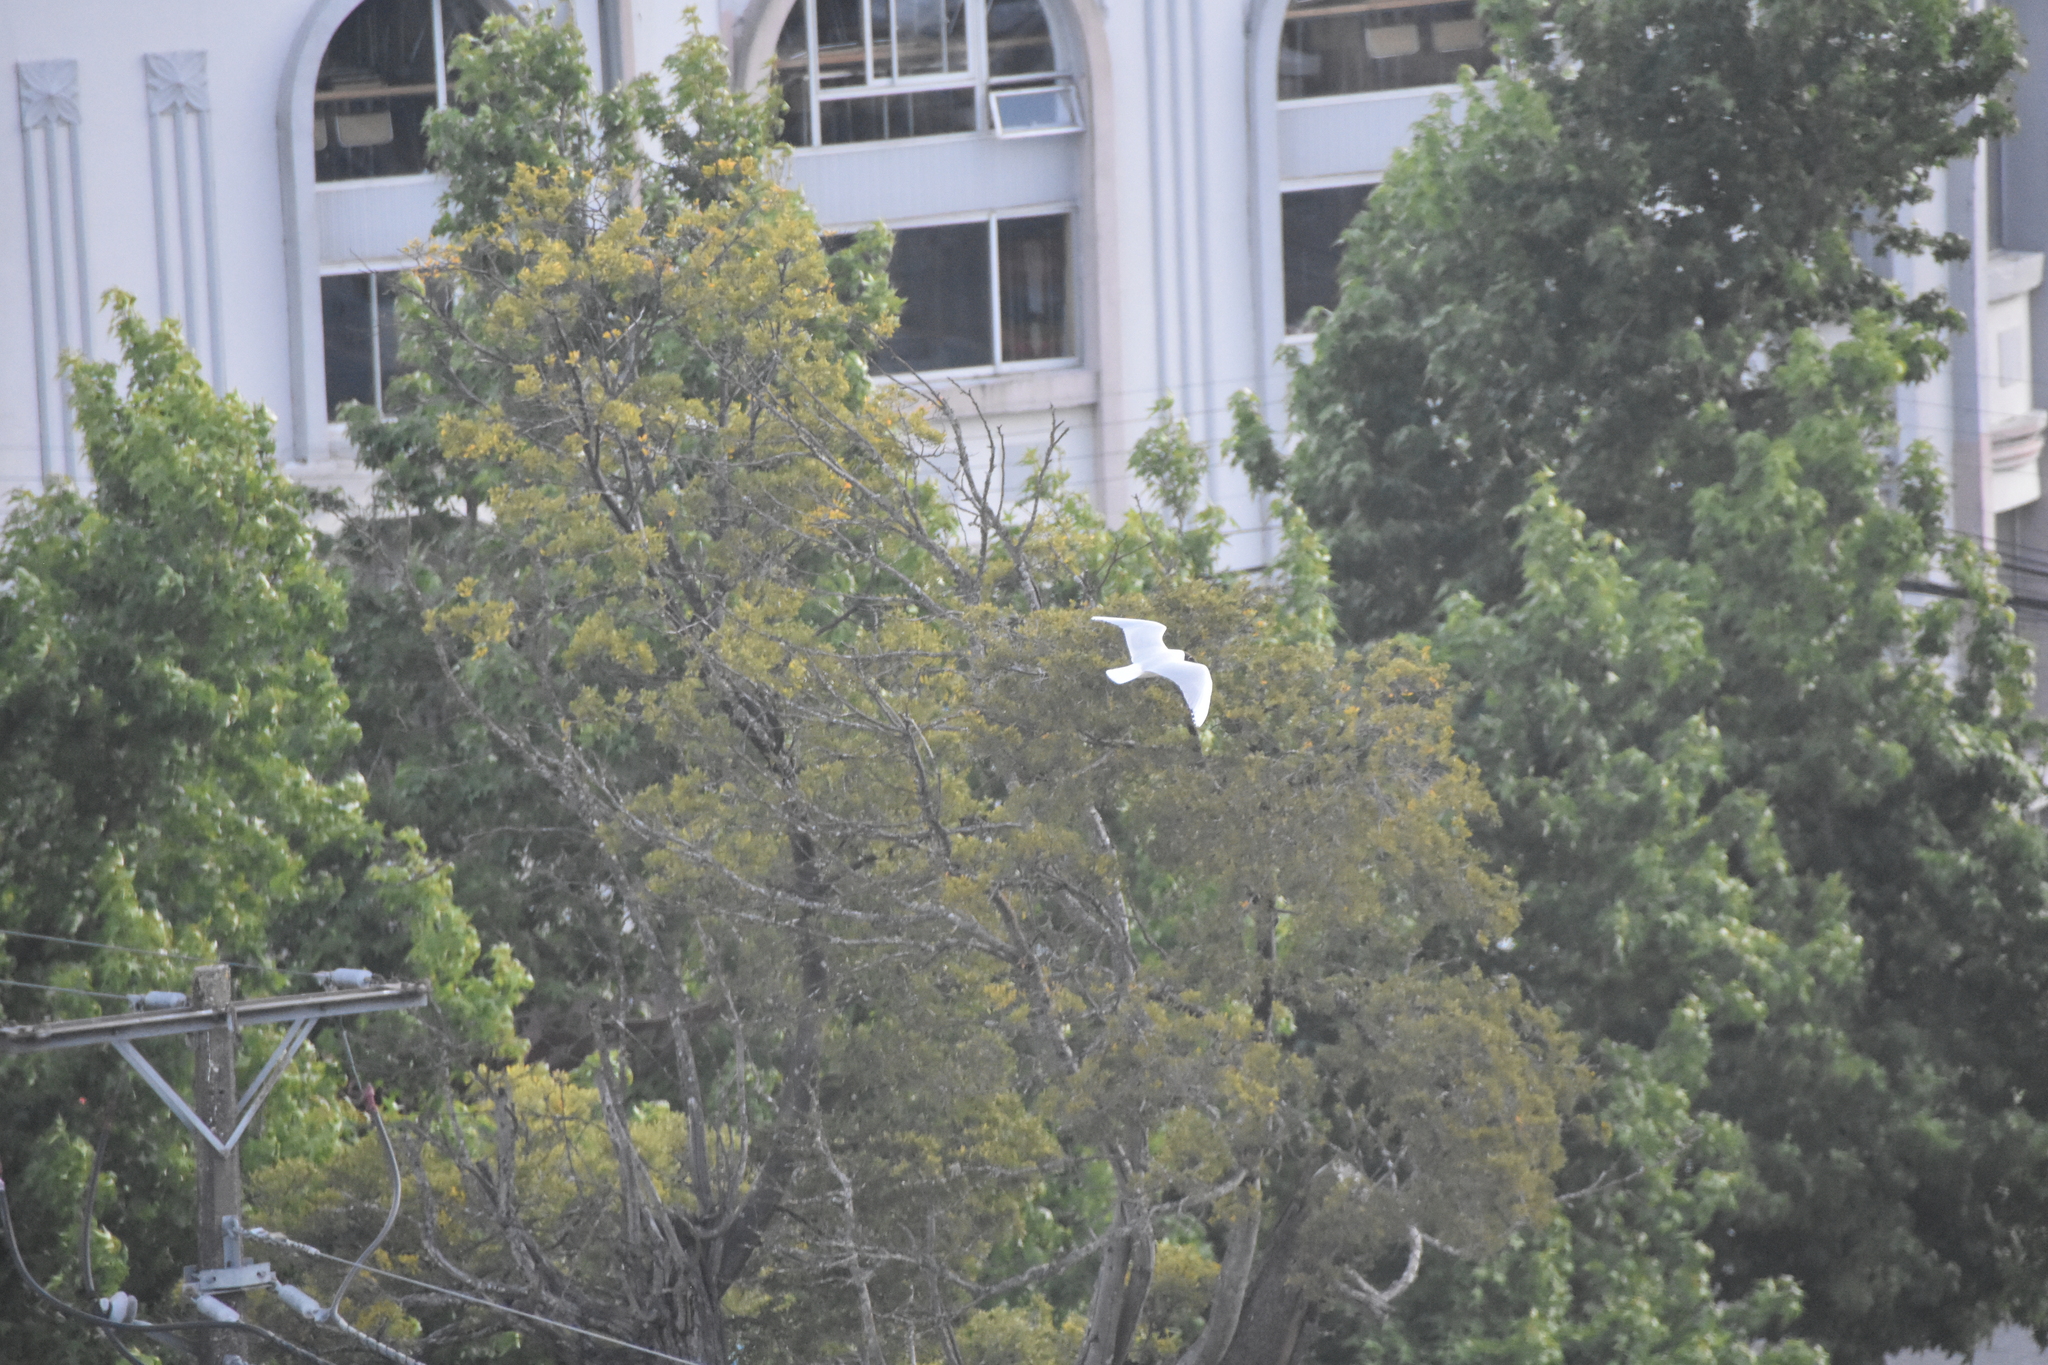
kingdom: Animalia
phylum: Chordata
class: Aves
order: Charadriiformes
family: Laridae
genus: Chroicocephalus
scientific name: Chroicocephalus maculipennis
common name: Brown-hooded gull
